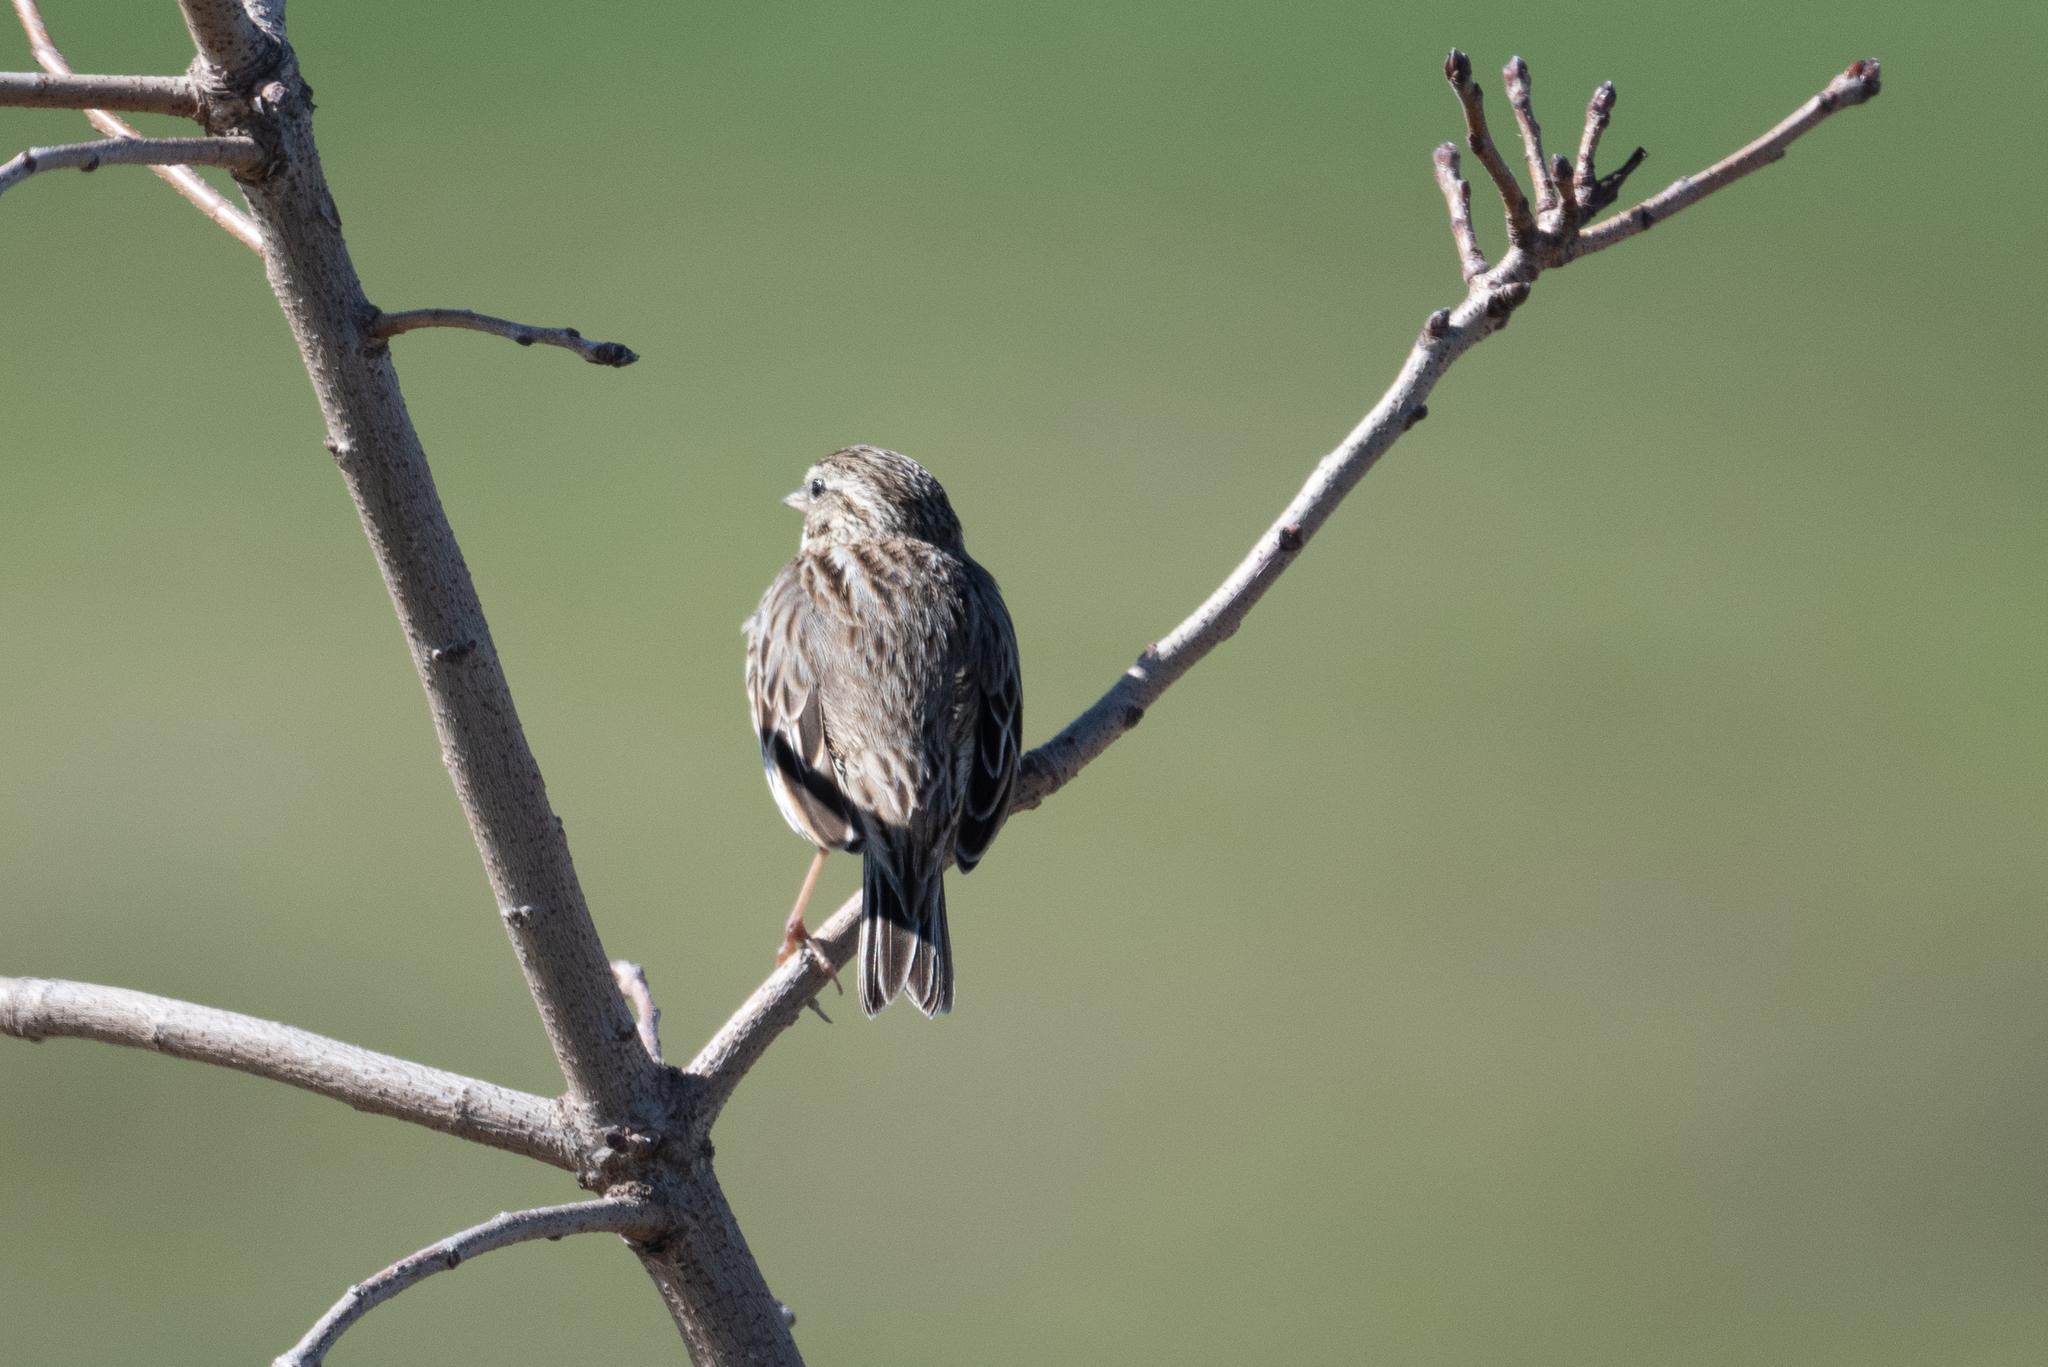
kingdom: Animalia
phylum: Chordata
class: Aves
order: Passeriformes
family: Passerellidae
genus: Passerculus
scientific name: Passerculus sandwichensis
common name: Savannah sparrow
